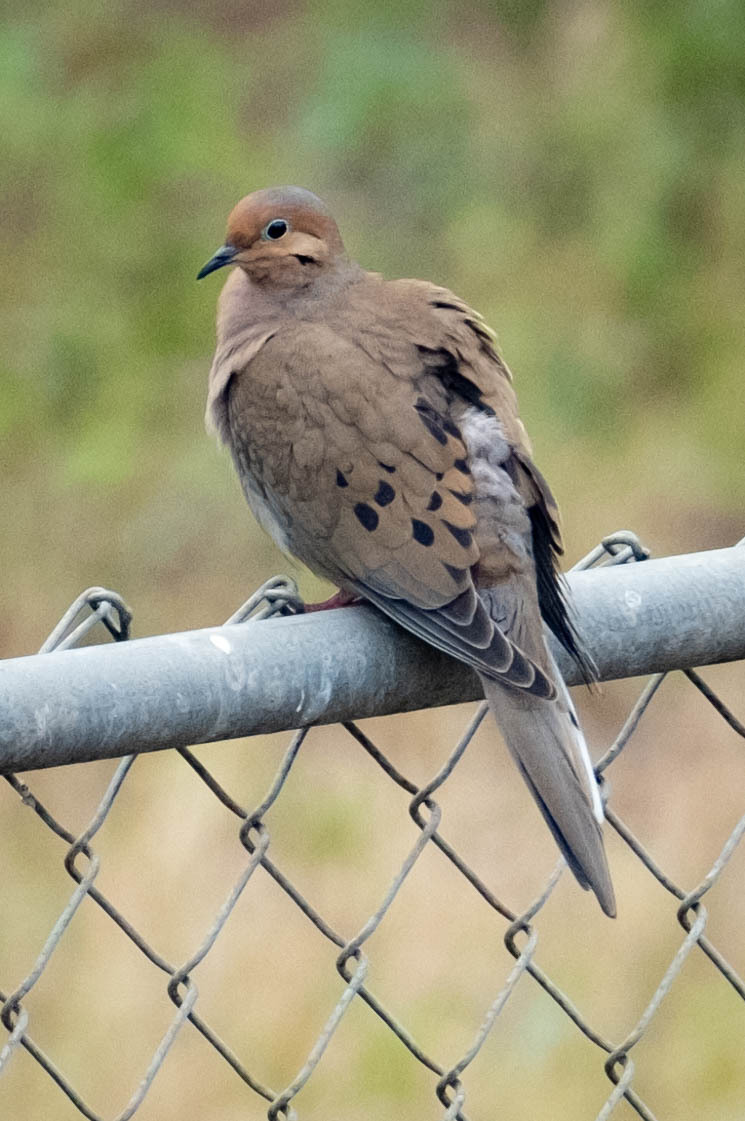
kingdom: Animalia
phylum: Chordata
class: Aves
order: Columbiformes
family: Columbidae
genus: Zenaida
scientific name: Zenaida macroura
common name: Mourning dove
